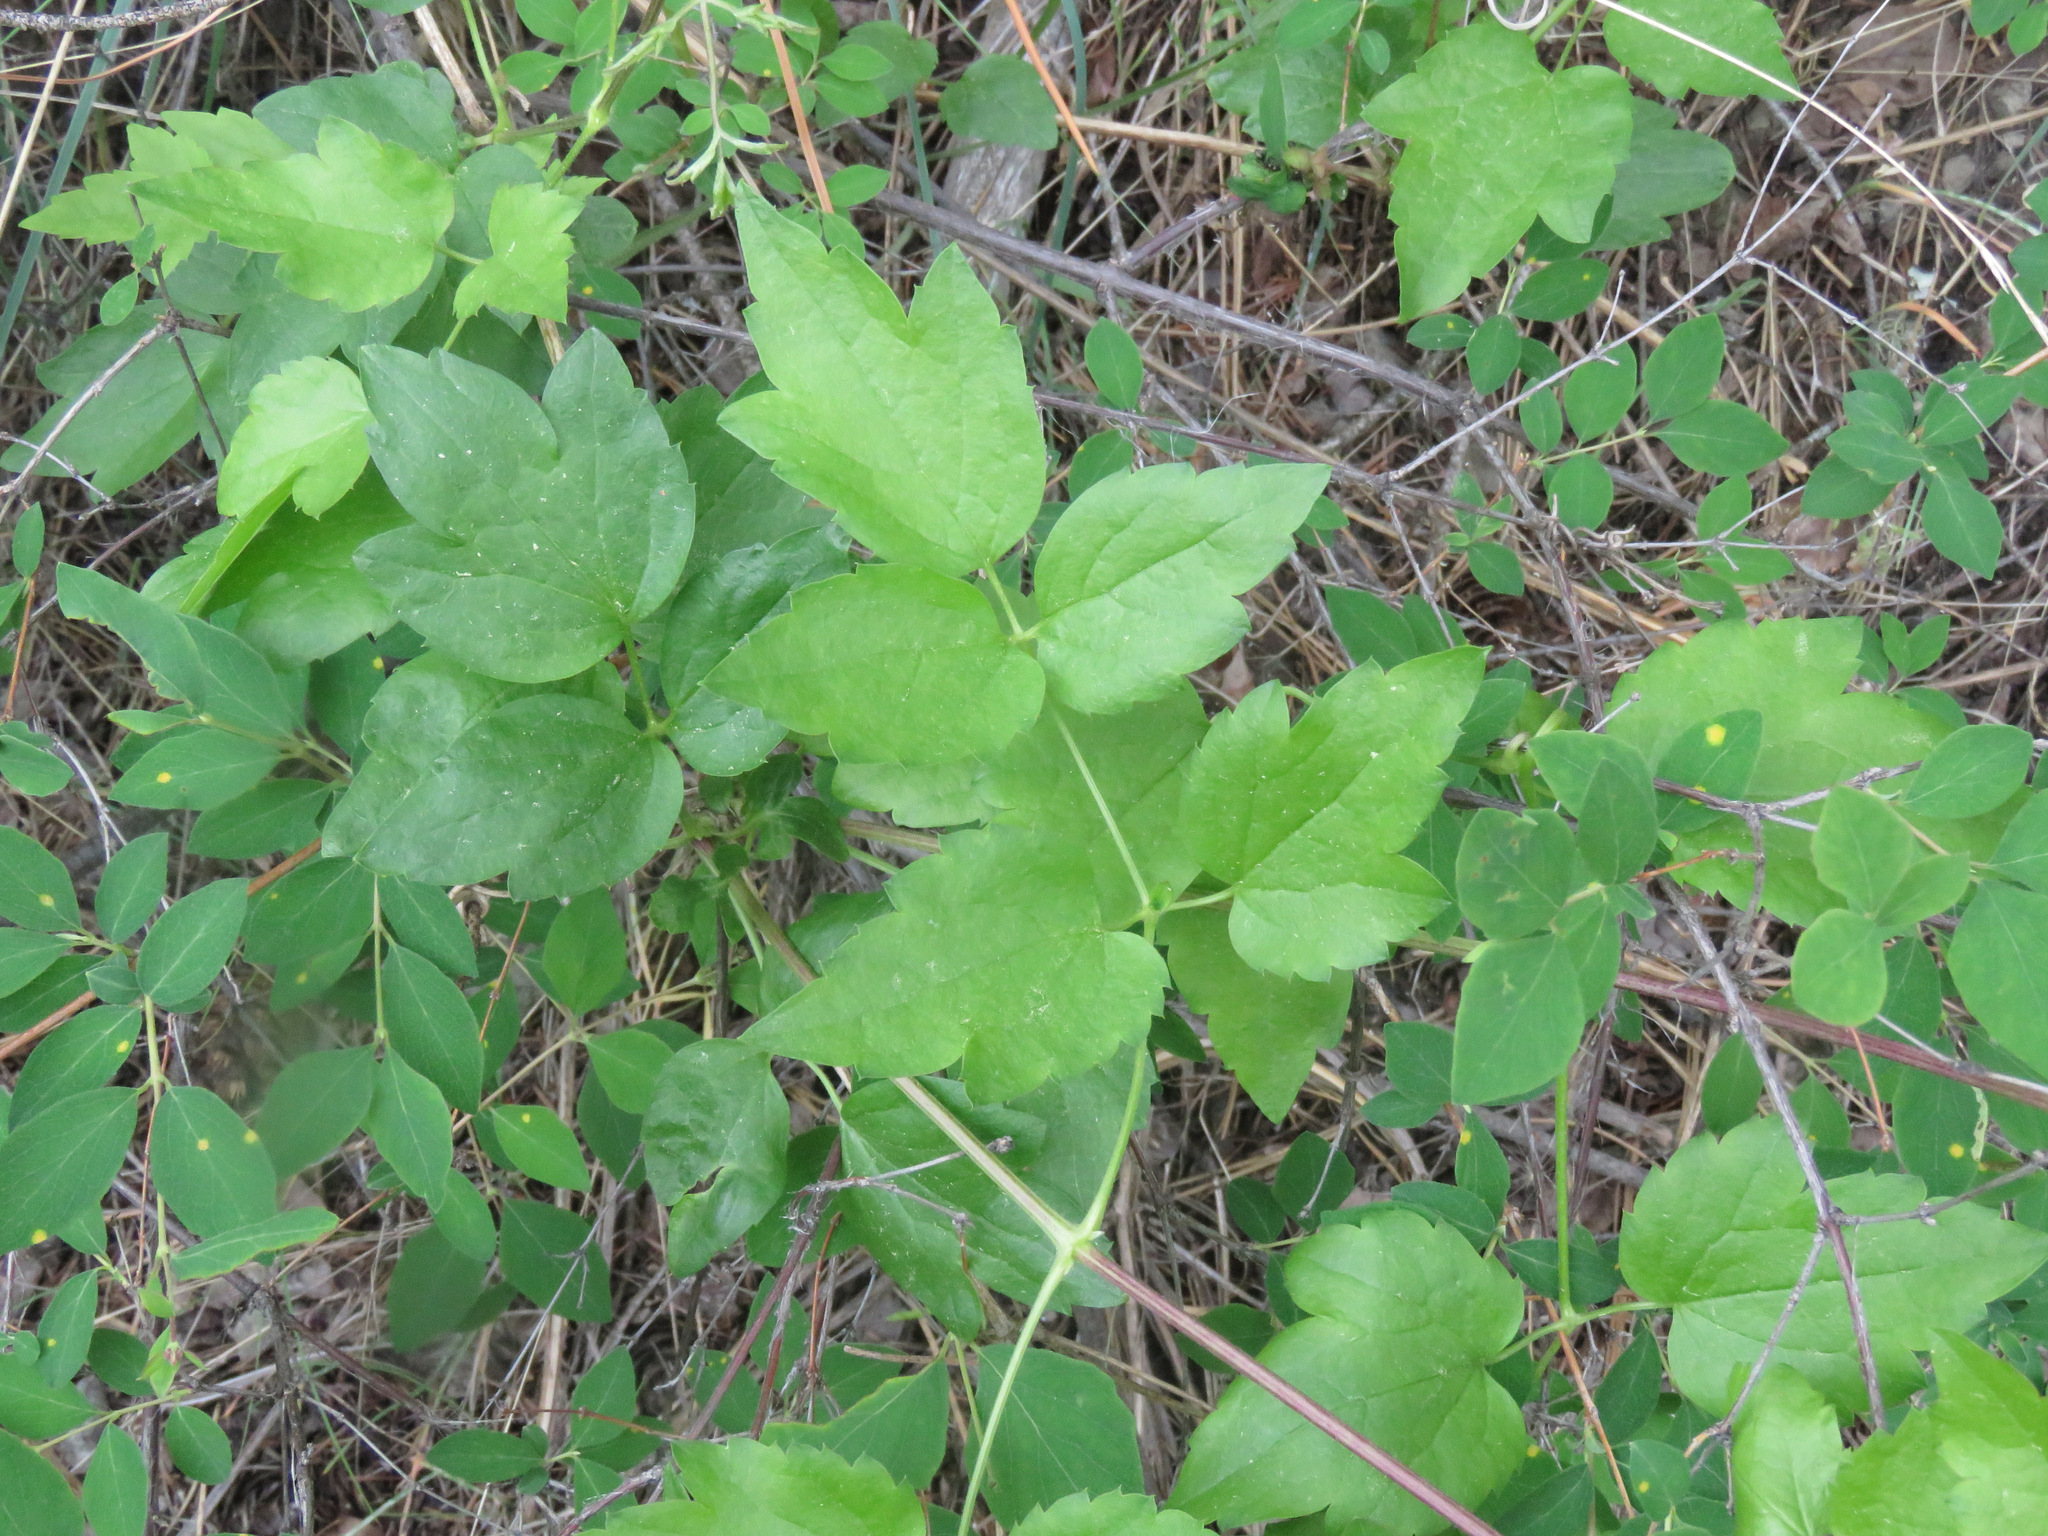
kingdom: Plantae
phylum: Tracheophyta
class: Magnoliopsida
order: Ranunculales
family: Ranunculaceae
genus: Clematis
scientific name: Clematis ligusticifolia
